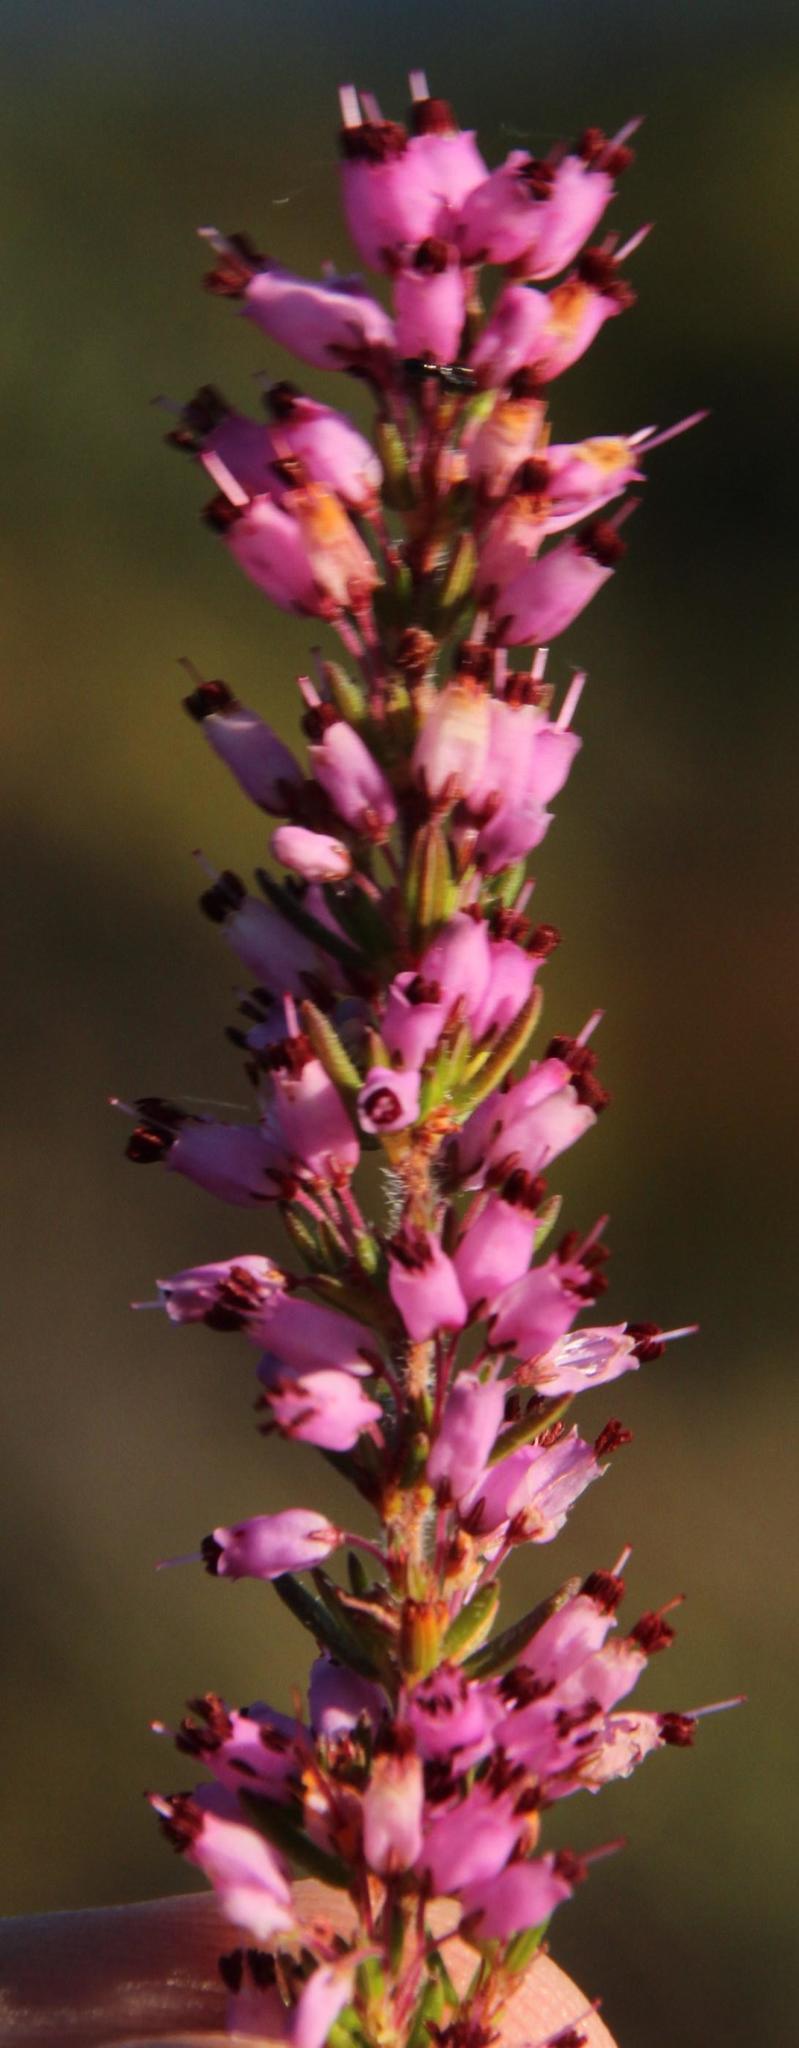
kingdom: Plantae
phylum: Tracheophyta
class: Magnoliopsida
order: Ericales
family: Ericaceae
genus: Erica
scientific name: Erica nudiflora
